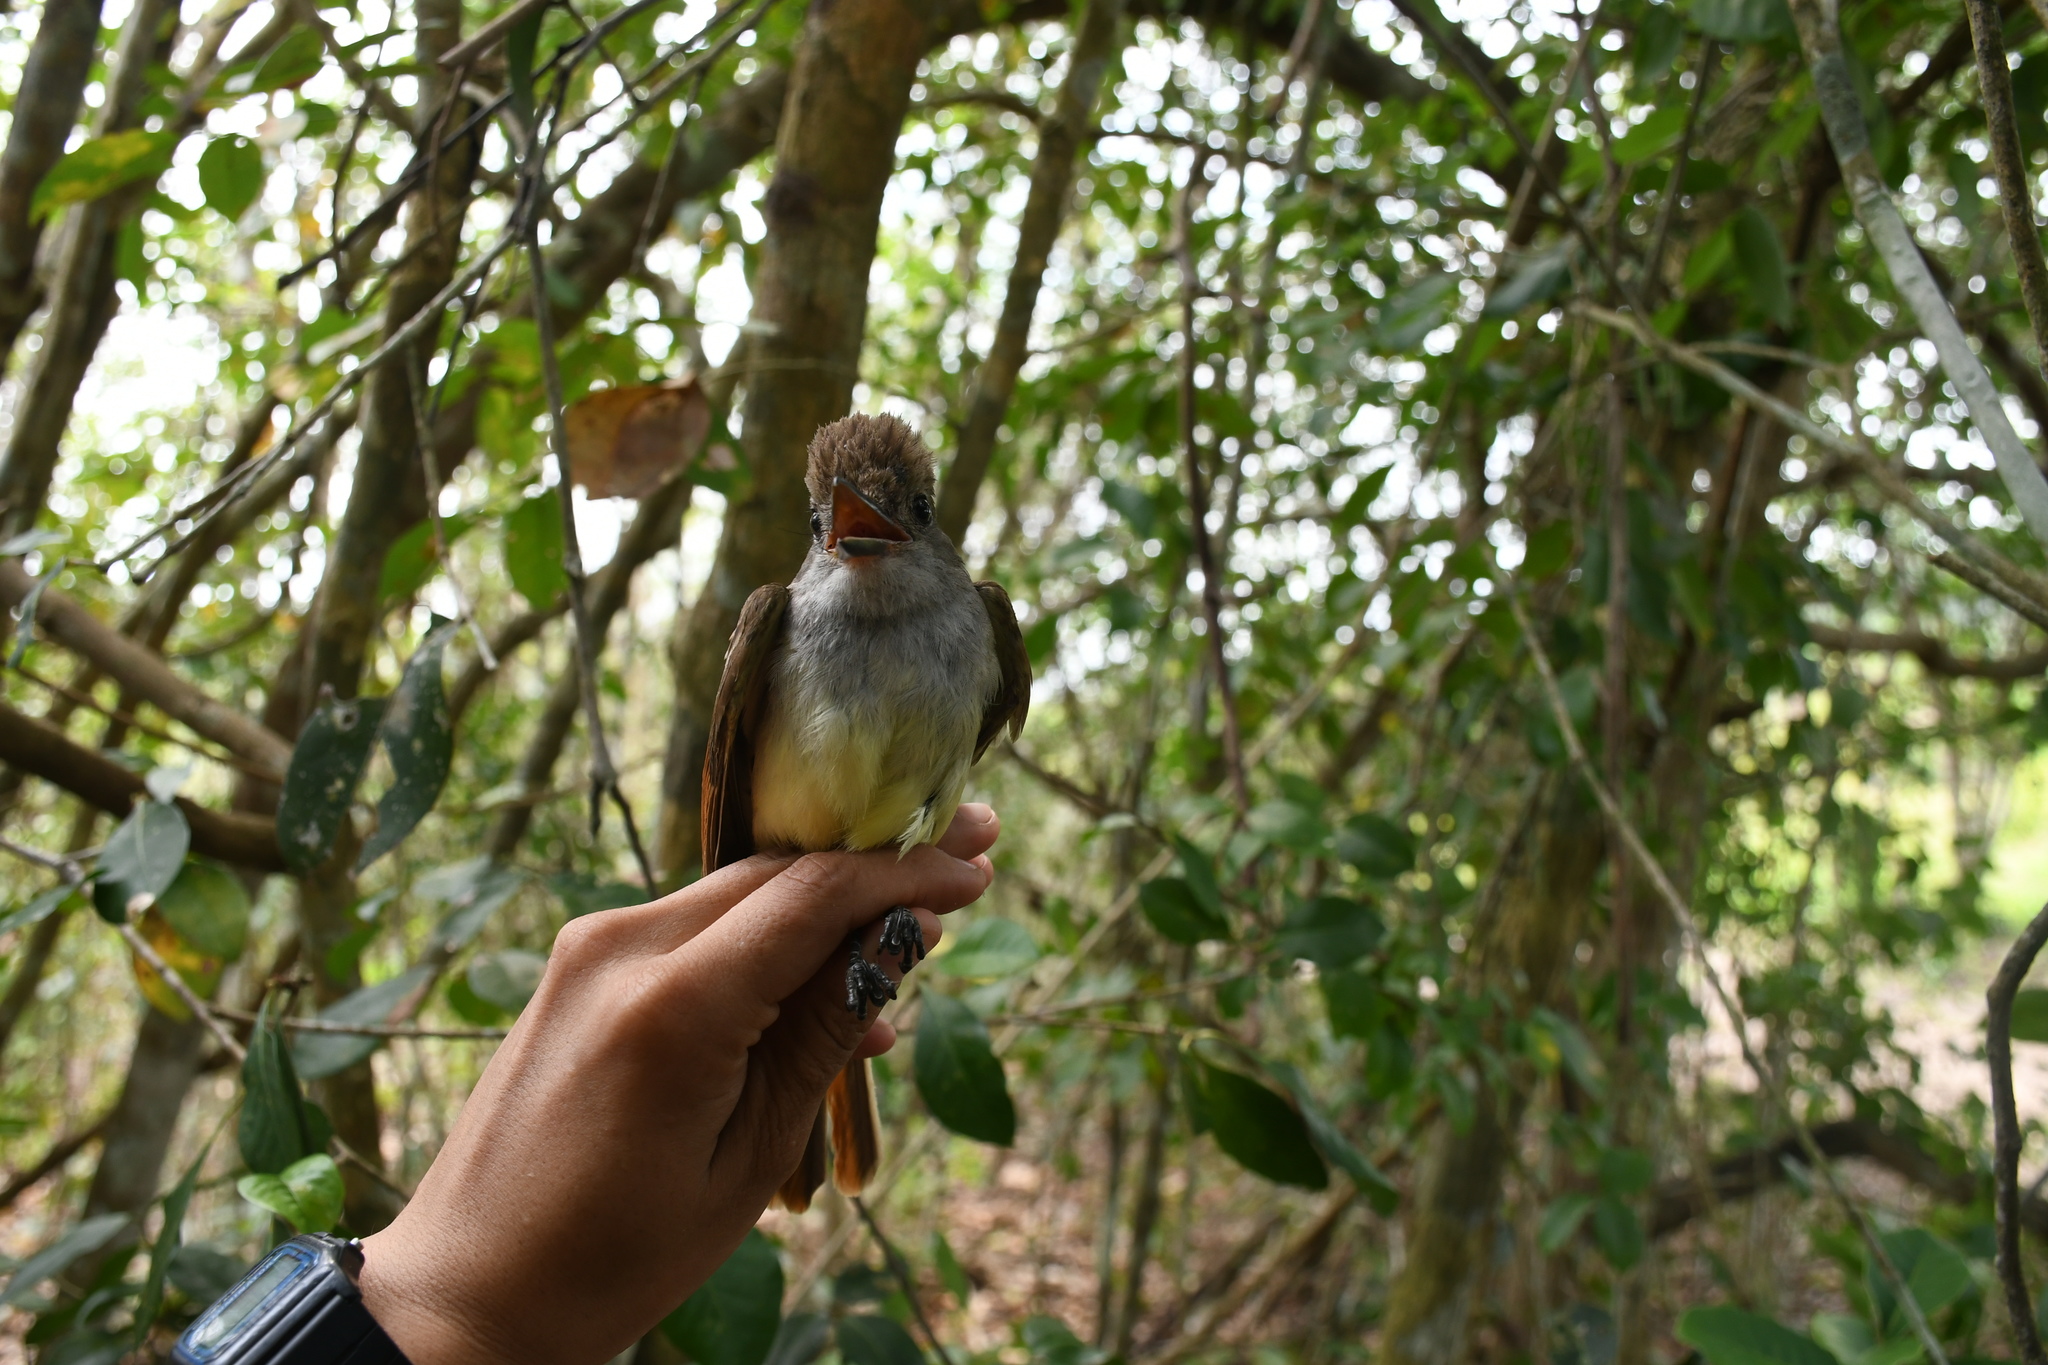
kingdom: Animalia
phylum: Chordata
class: Aves
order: Passeriformes
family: Tyrannidae
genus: Myiarchus
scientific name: Myiarchus tyrannulus
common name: Brown-crested flycatcher
